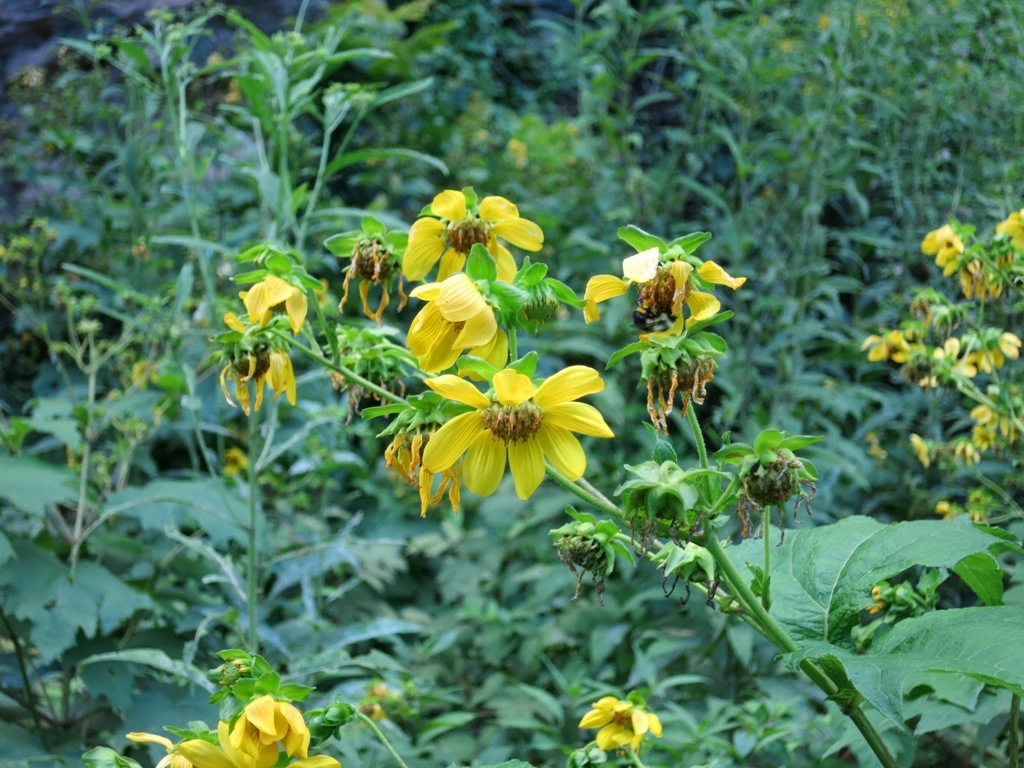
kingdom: Plantae
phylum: Tracheophyta
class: Magnoliopsida
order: Asterales
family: Asteraceae
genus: Smallanthus
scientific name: Smallanthus uvedalia
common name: Bear's-foot
